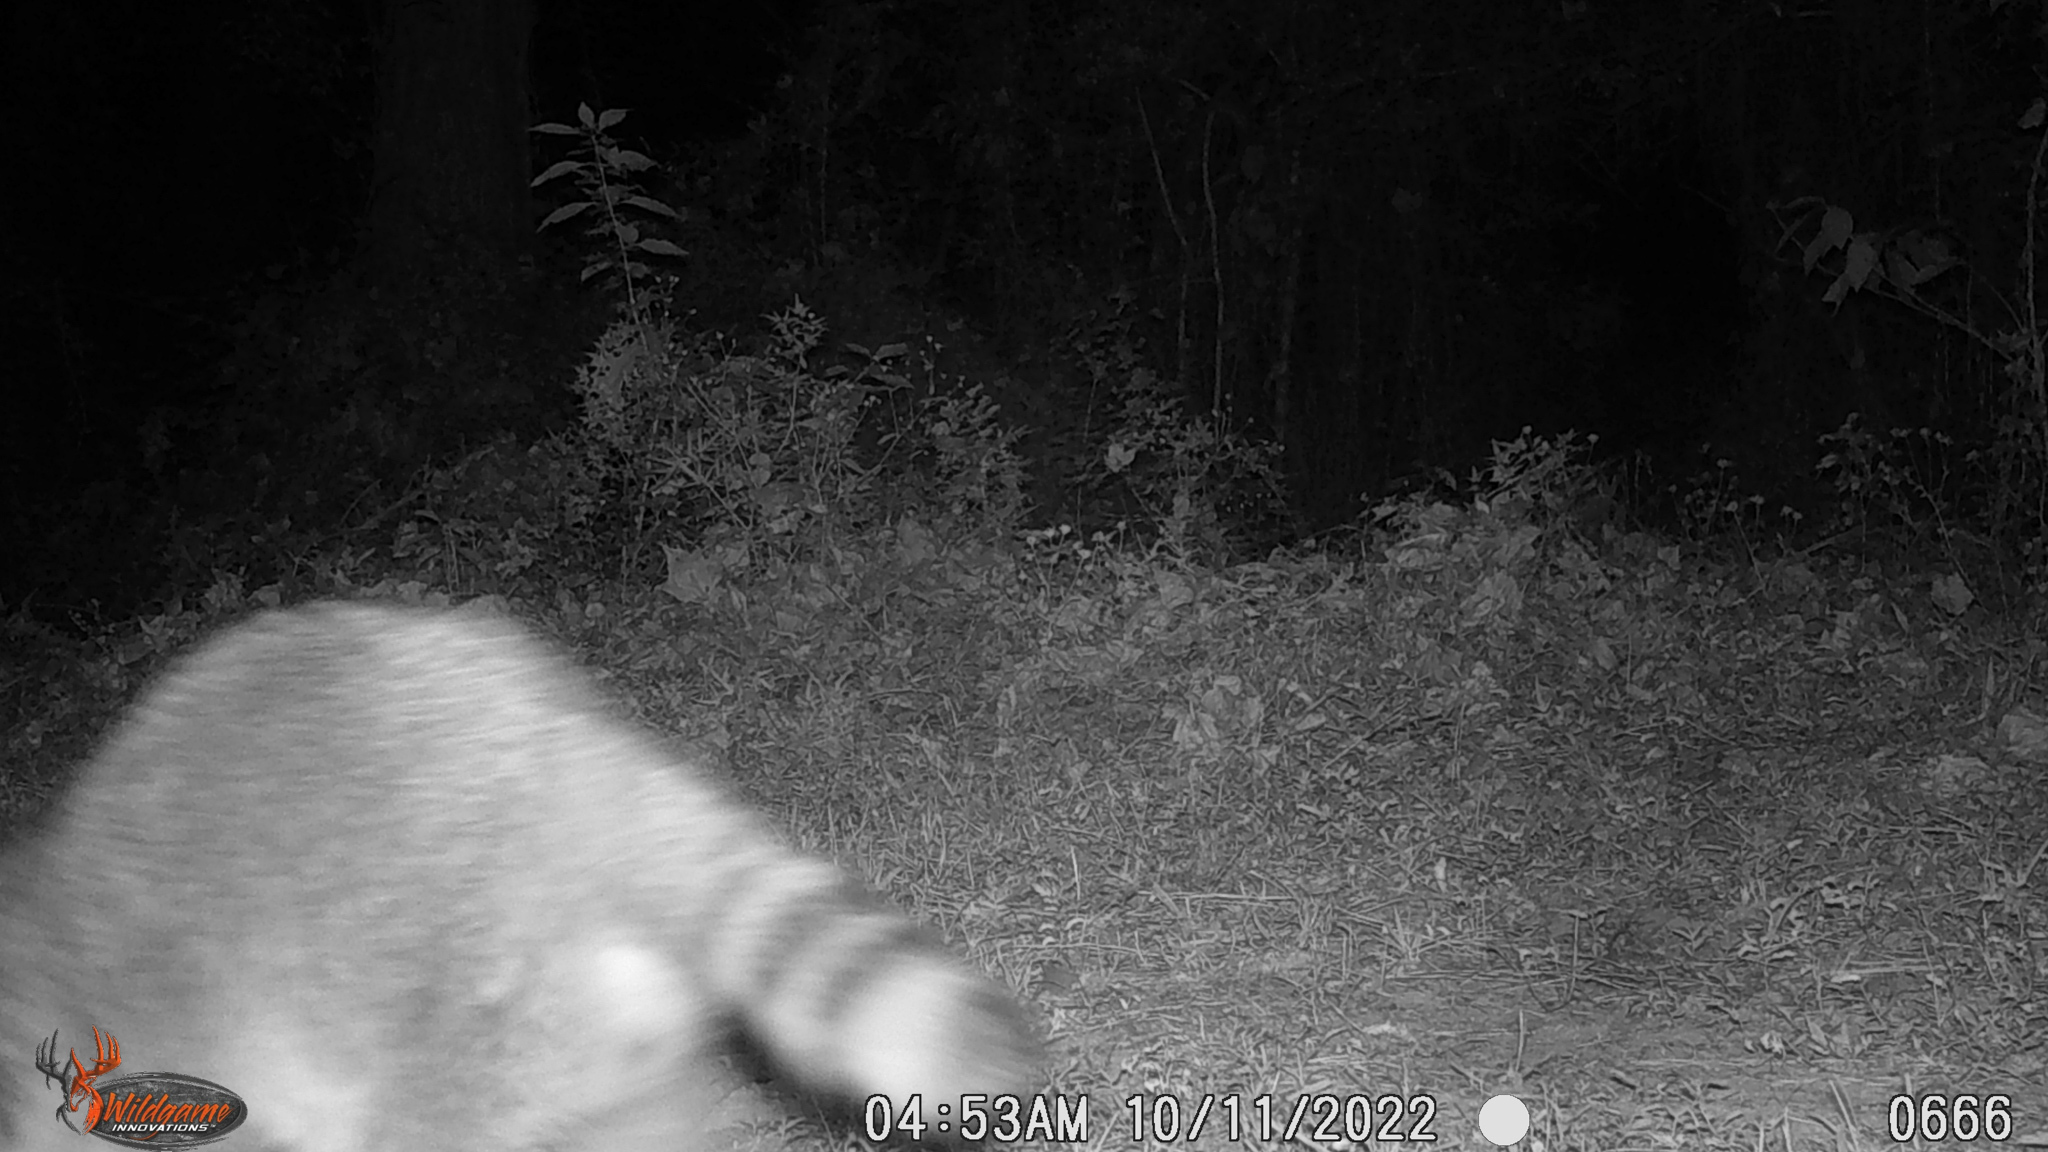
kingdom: Animalia
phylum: Chordata
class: Mammalia
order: Carnivora
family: Procyonidae
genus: Procyon
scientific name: Procyon lotor
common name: Raccoon
